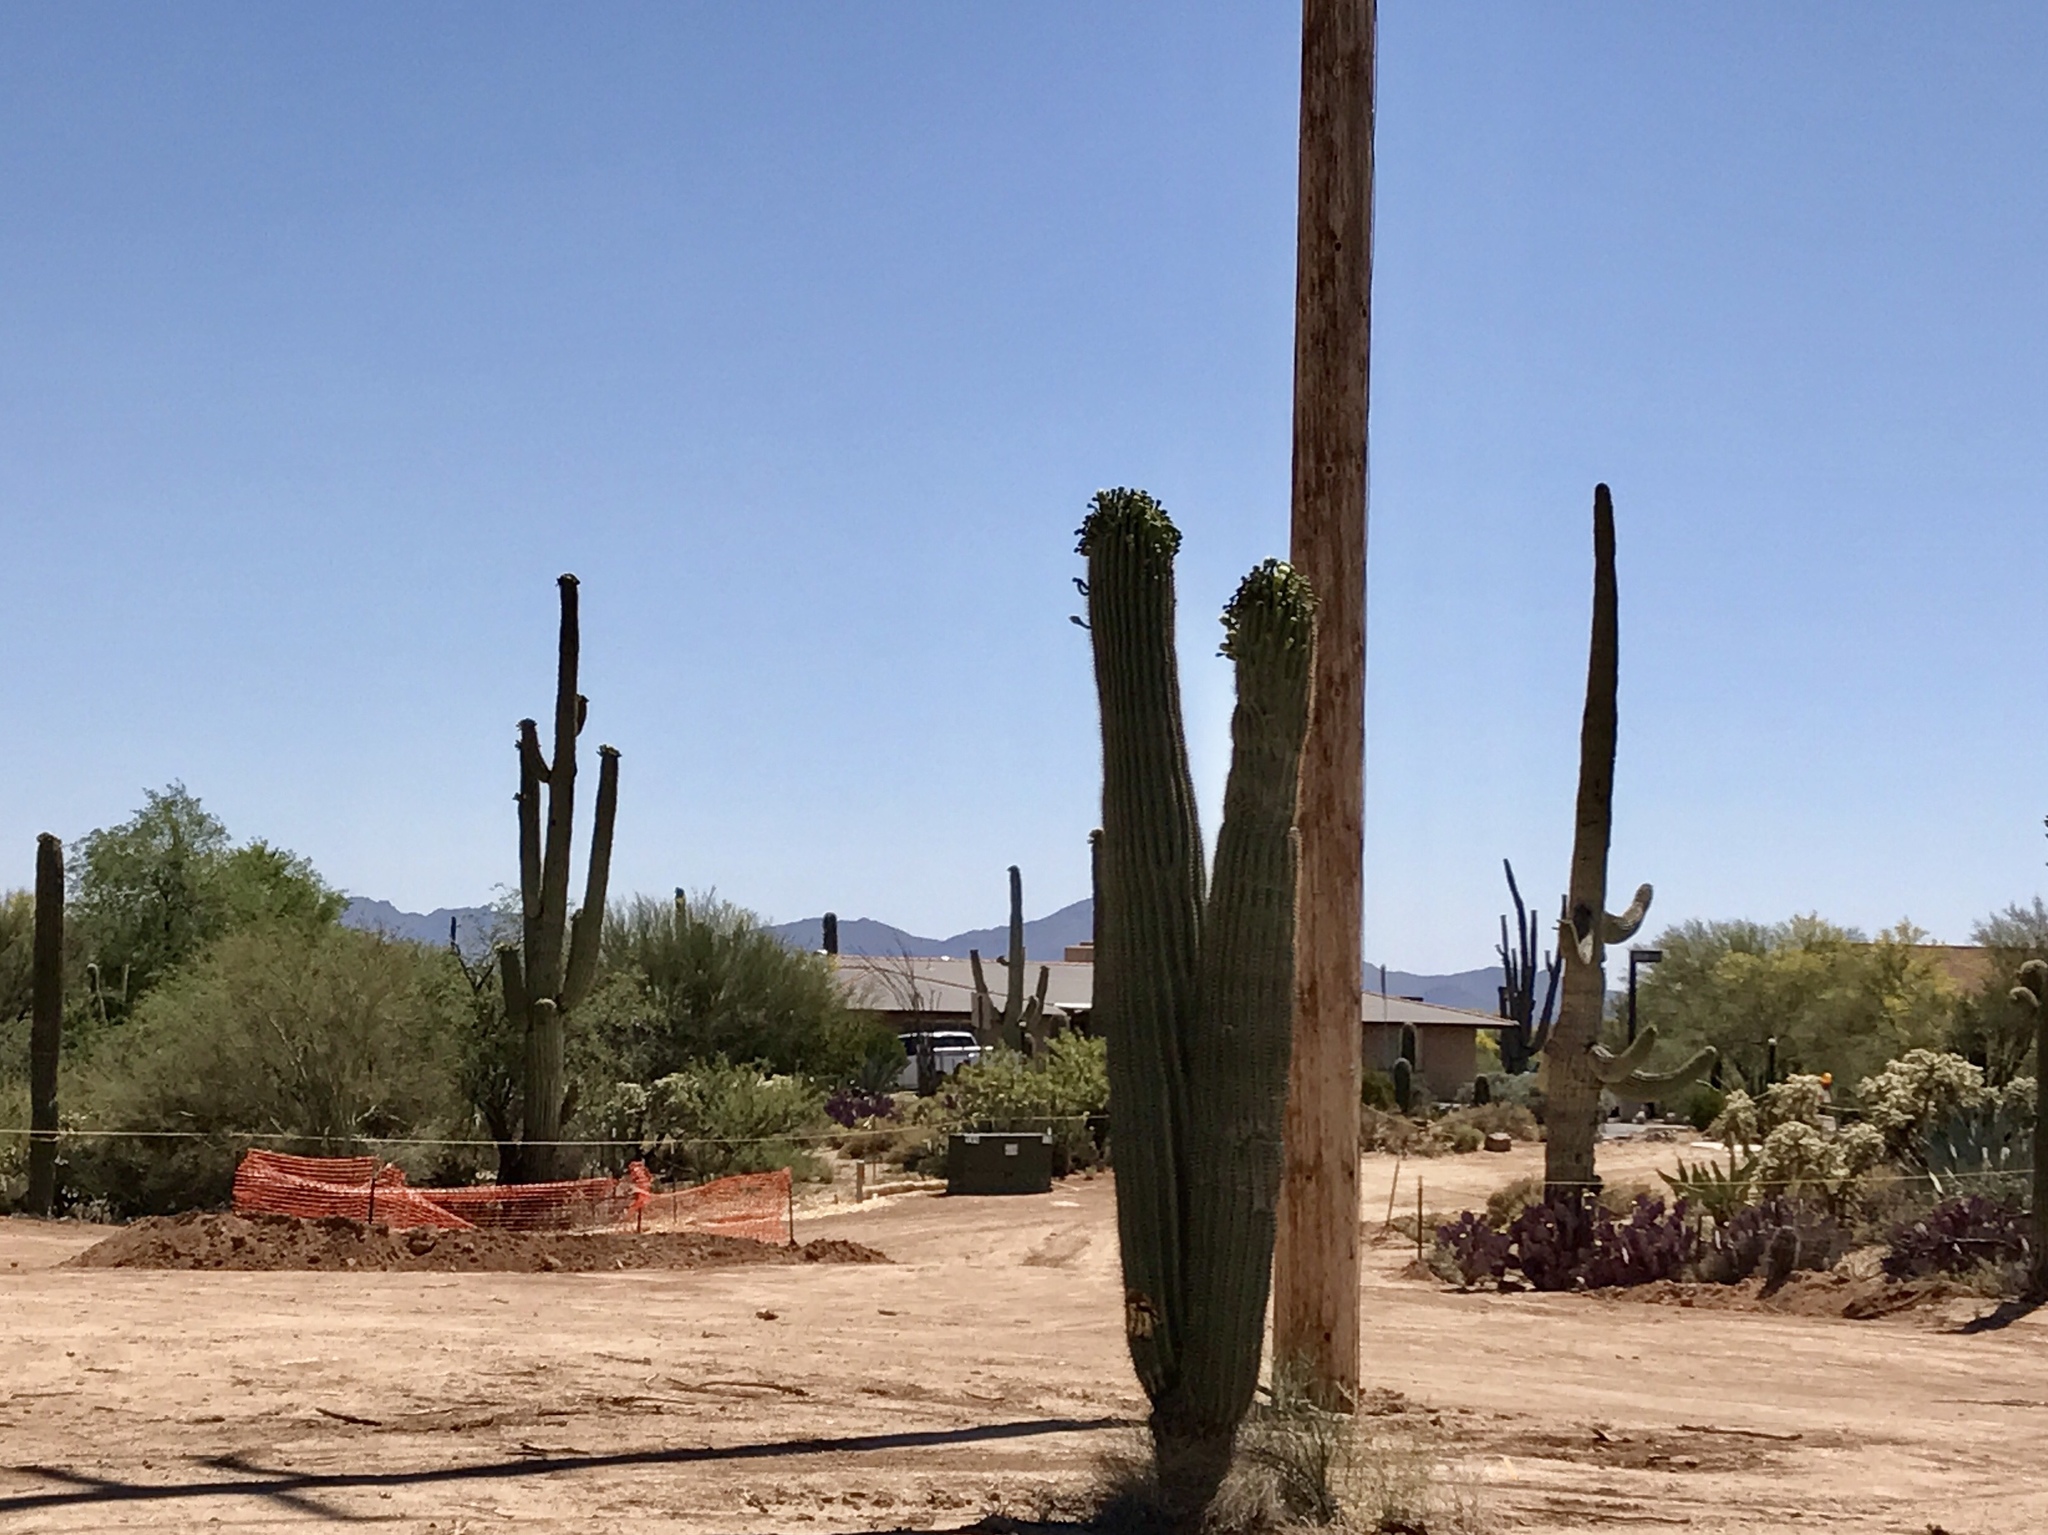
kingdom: Plantae
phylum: Tracheophyta
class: Magnoliopsida
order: Caryophyllales
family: Cactaceae
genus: Carnegiea
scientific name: Carnegiea gigantea
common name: Saguaro
